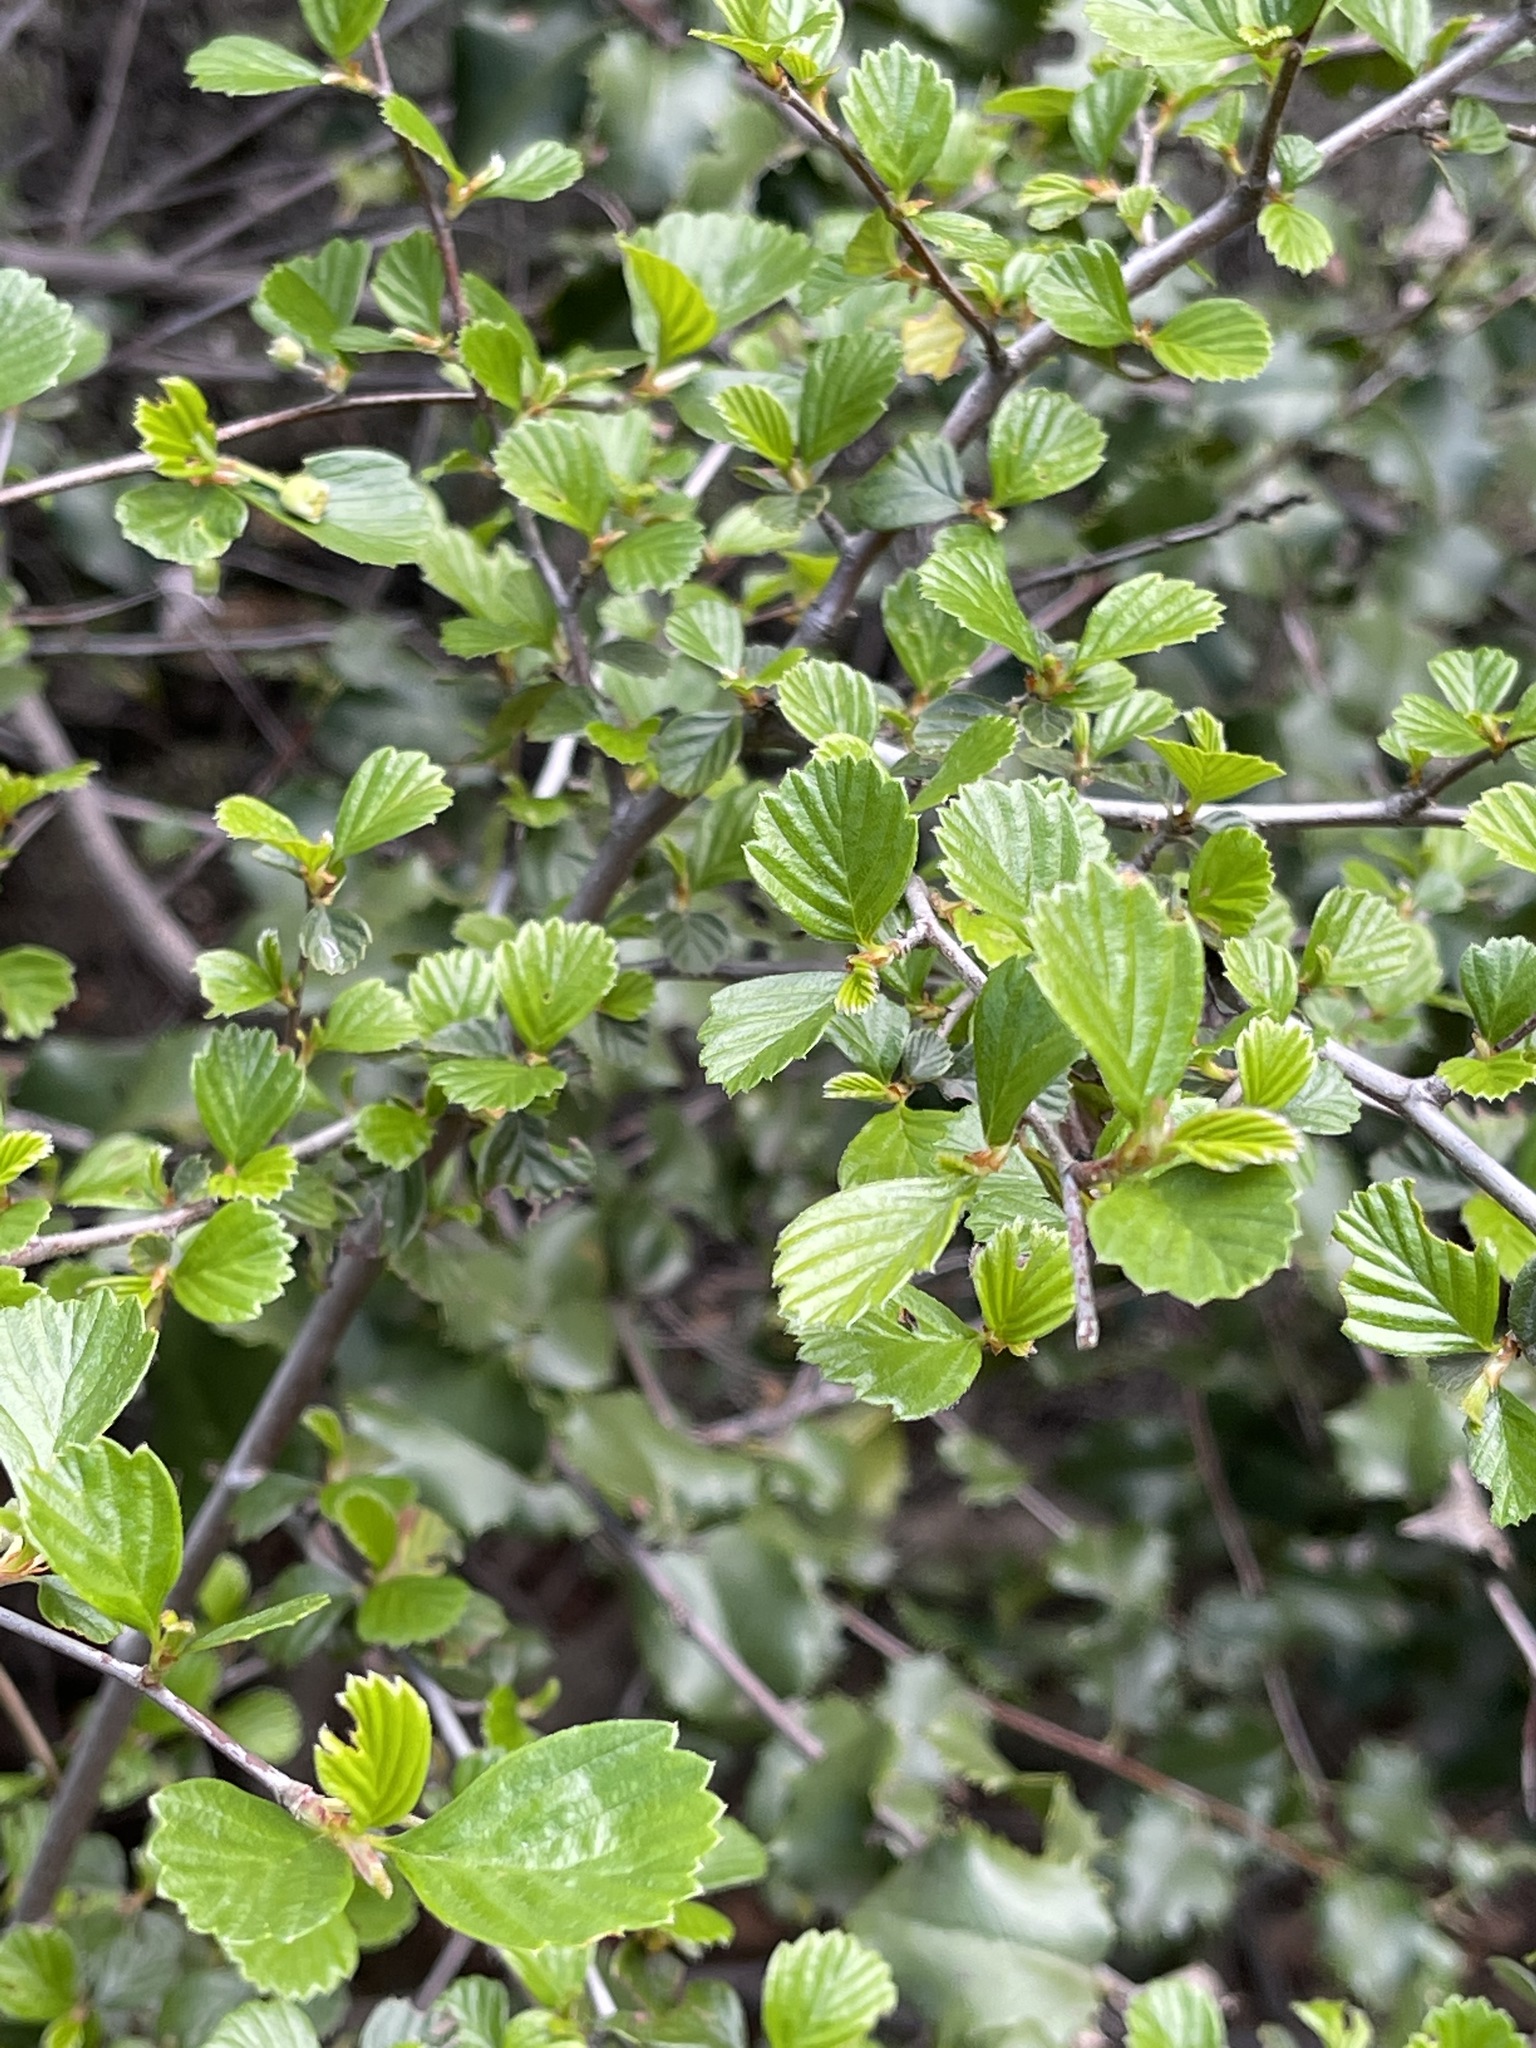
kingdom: Plantae
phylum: Tracheophyta
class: Magnoliopsida
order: Rosales
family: Rosaceae
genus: Cercocarpus
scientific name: Cercocarpus betuloides
